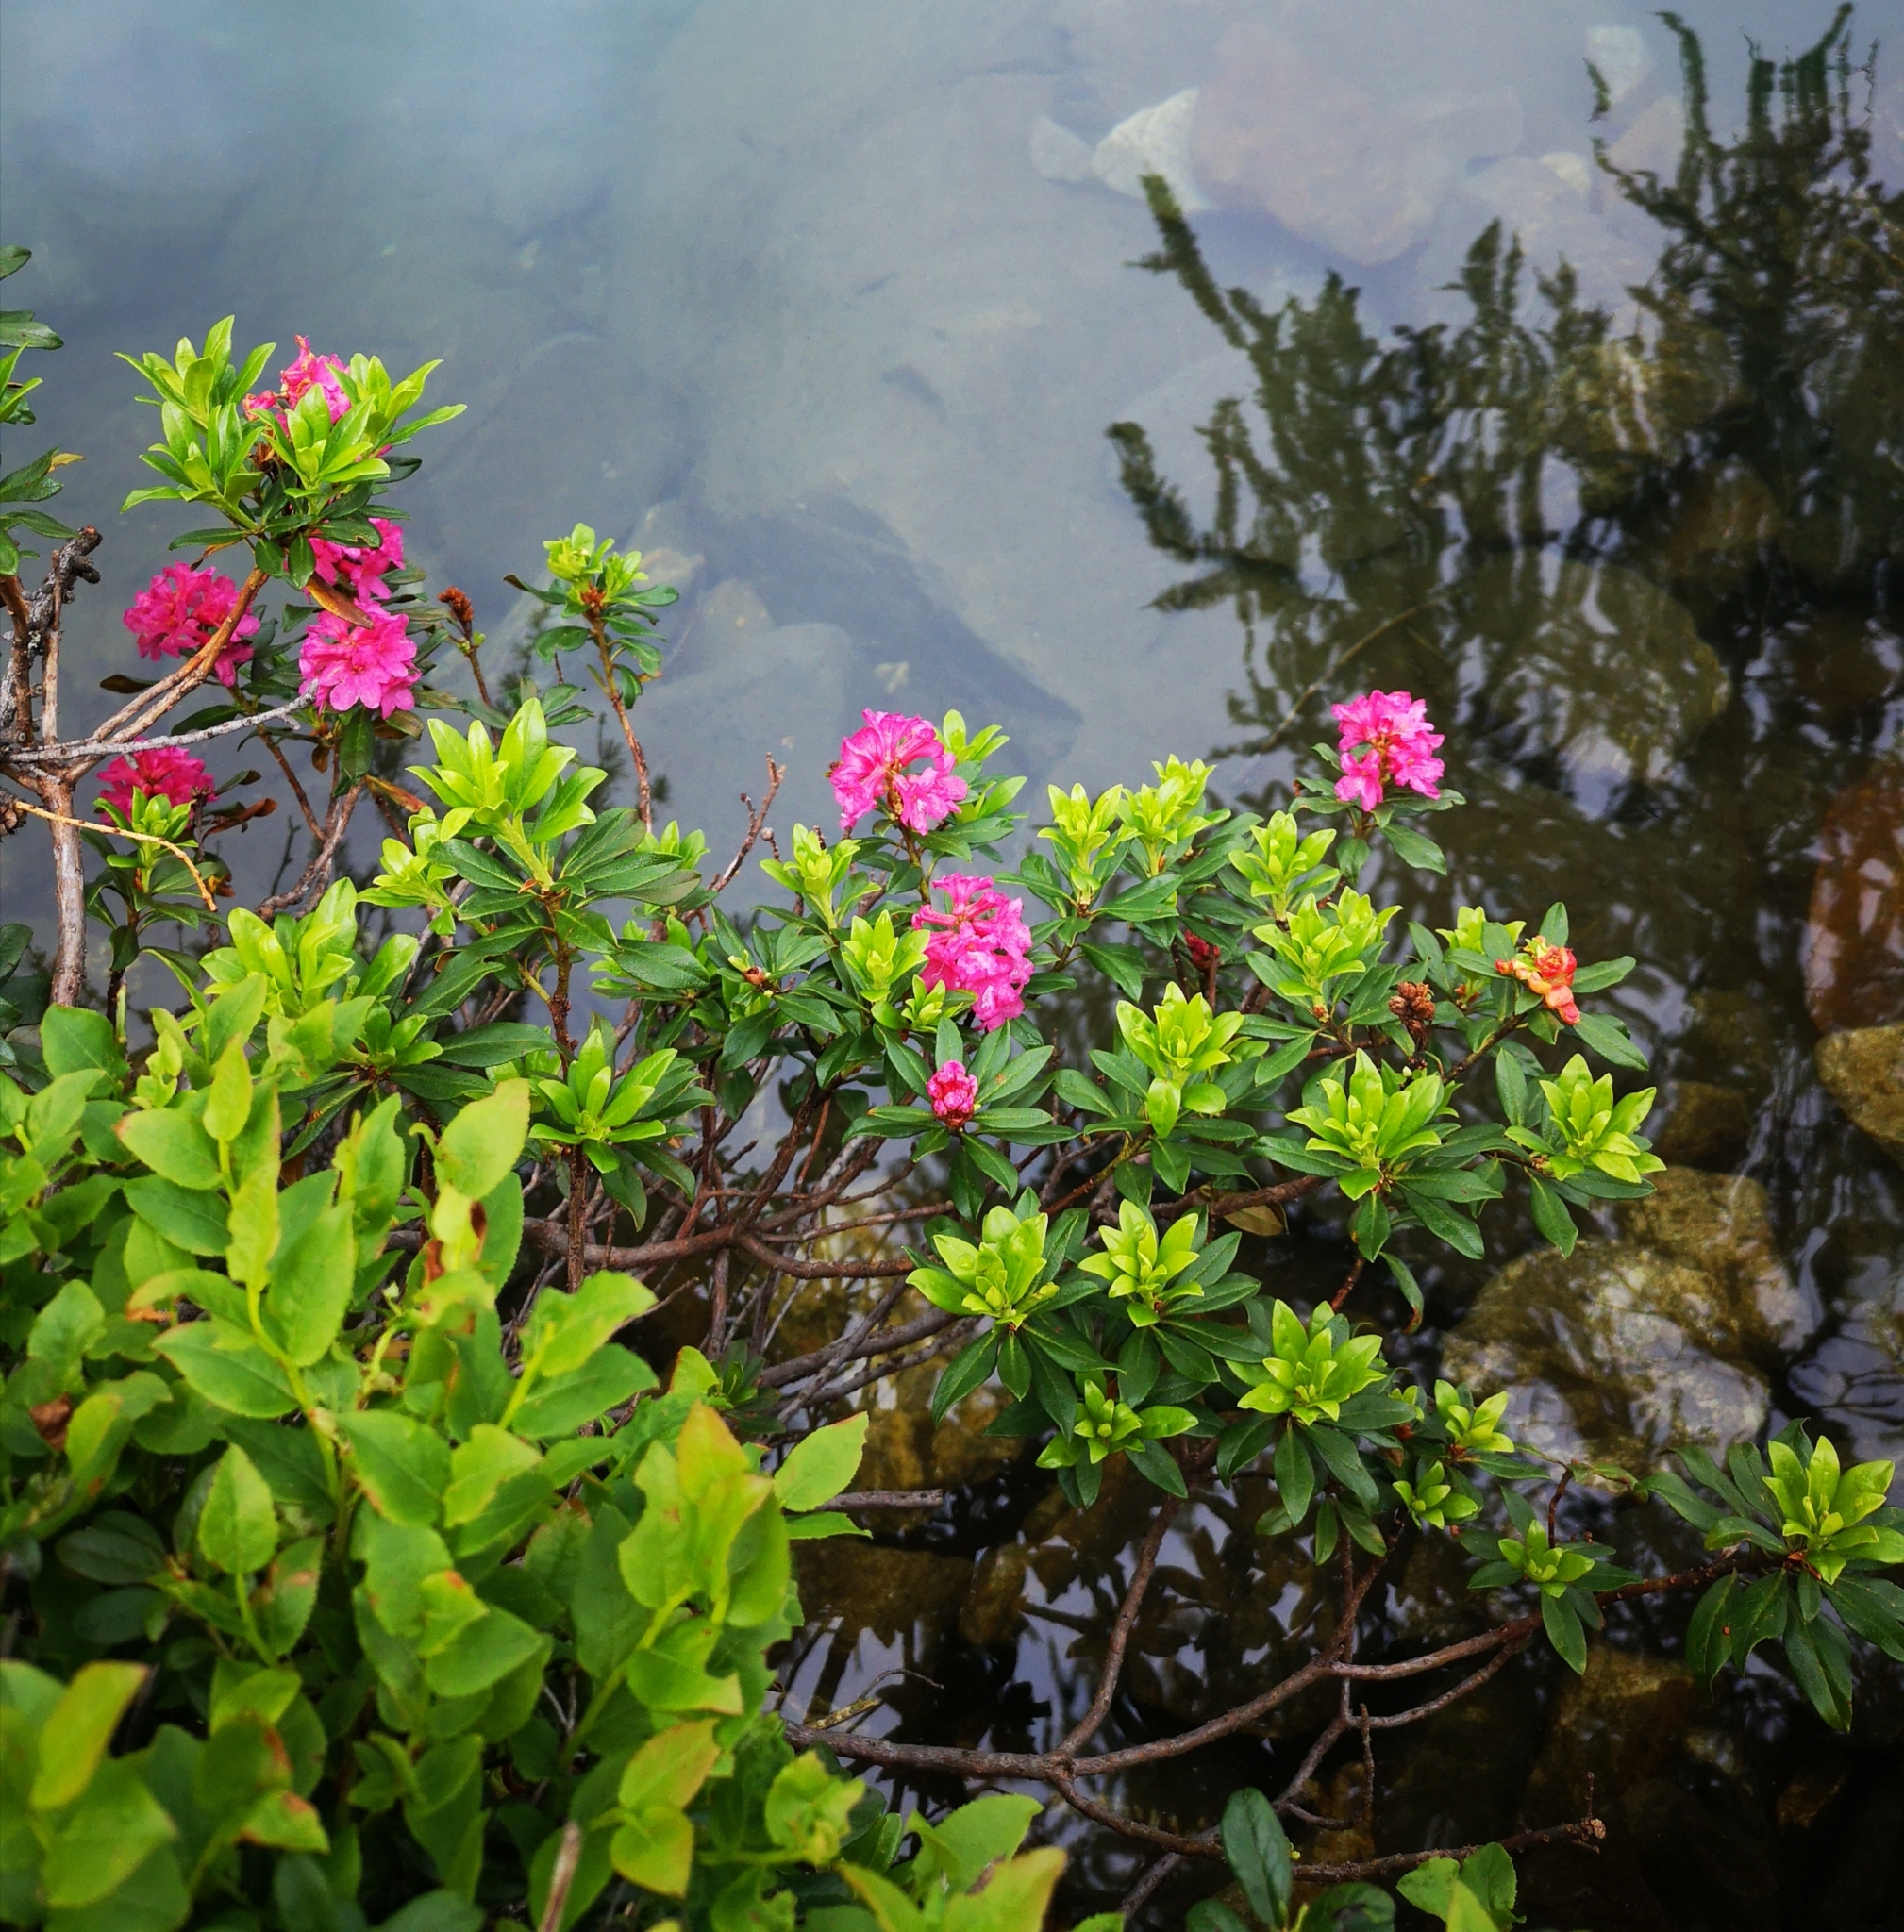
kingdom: Plantae
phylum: Tracheophyta
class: Magnoliopsida
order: Ericales
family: Ericaceae
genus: Rhododendron
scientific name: Rhododendron ferrugineum
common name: Alpenrose
